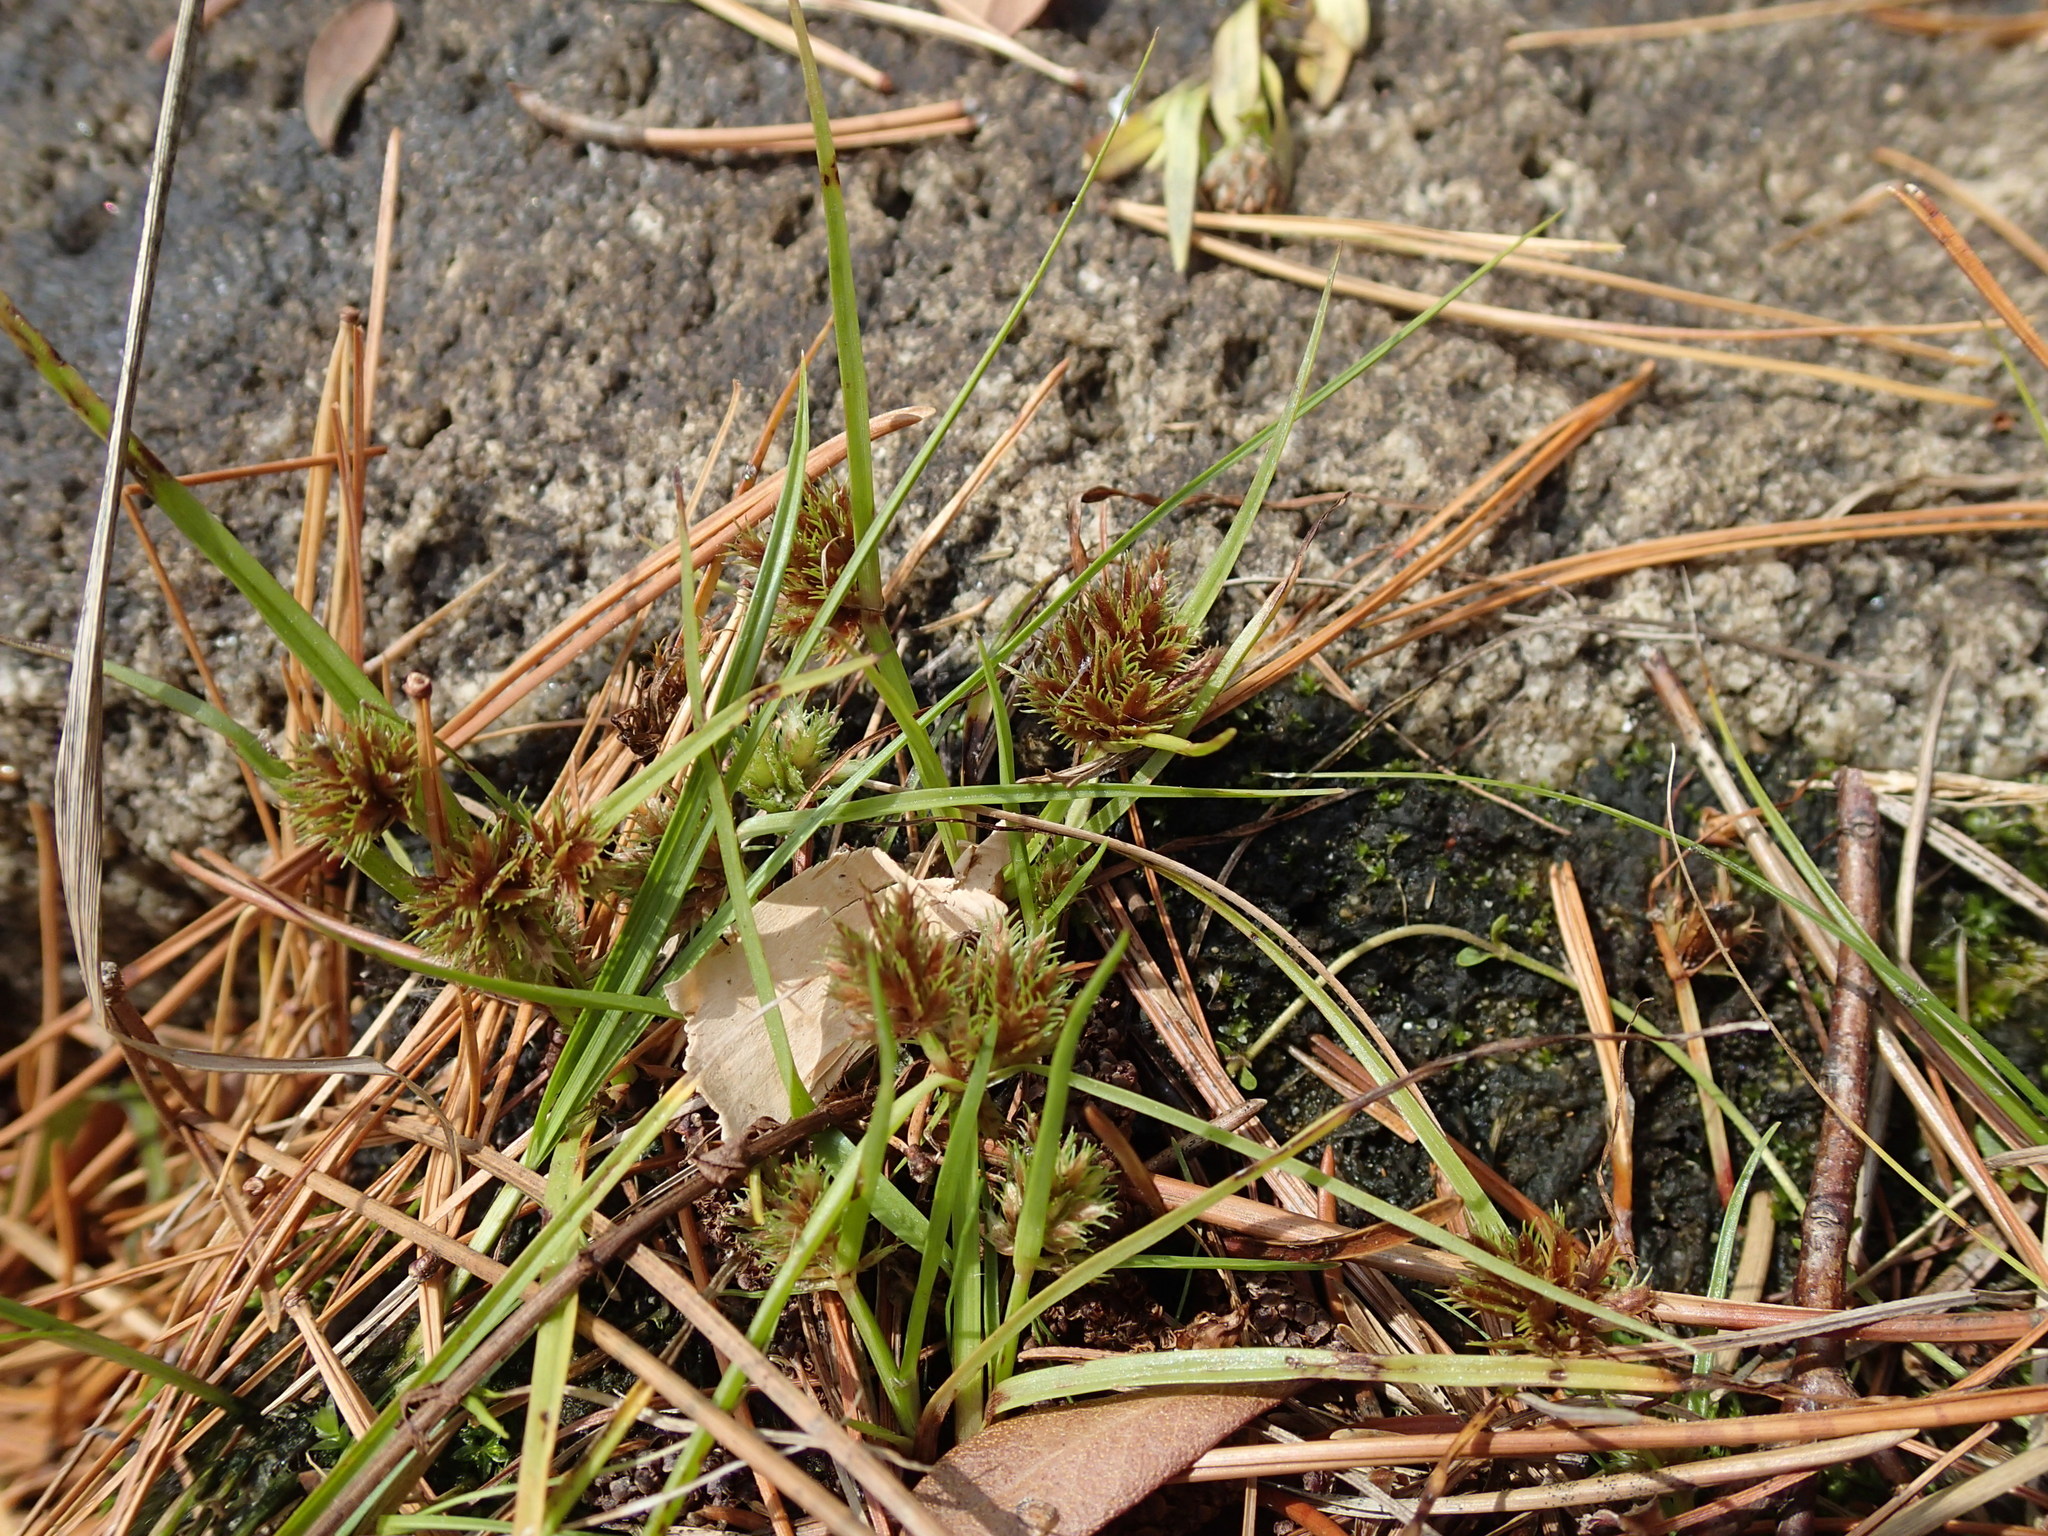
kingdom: Plantae
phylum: Tracheophyta
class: Liliopsida
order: Poales
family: Cyperaceae
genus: Cyperus
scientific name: Cyperus squarrosus
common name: Awned cyperus
